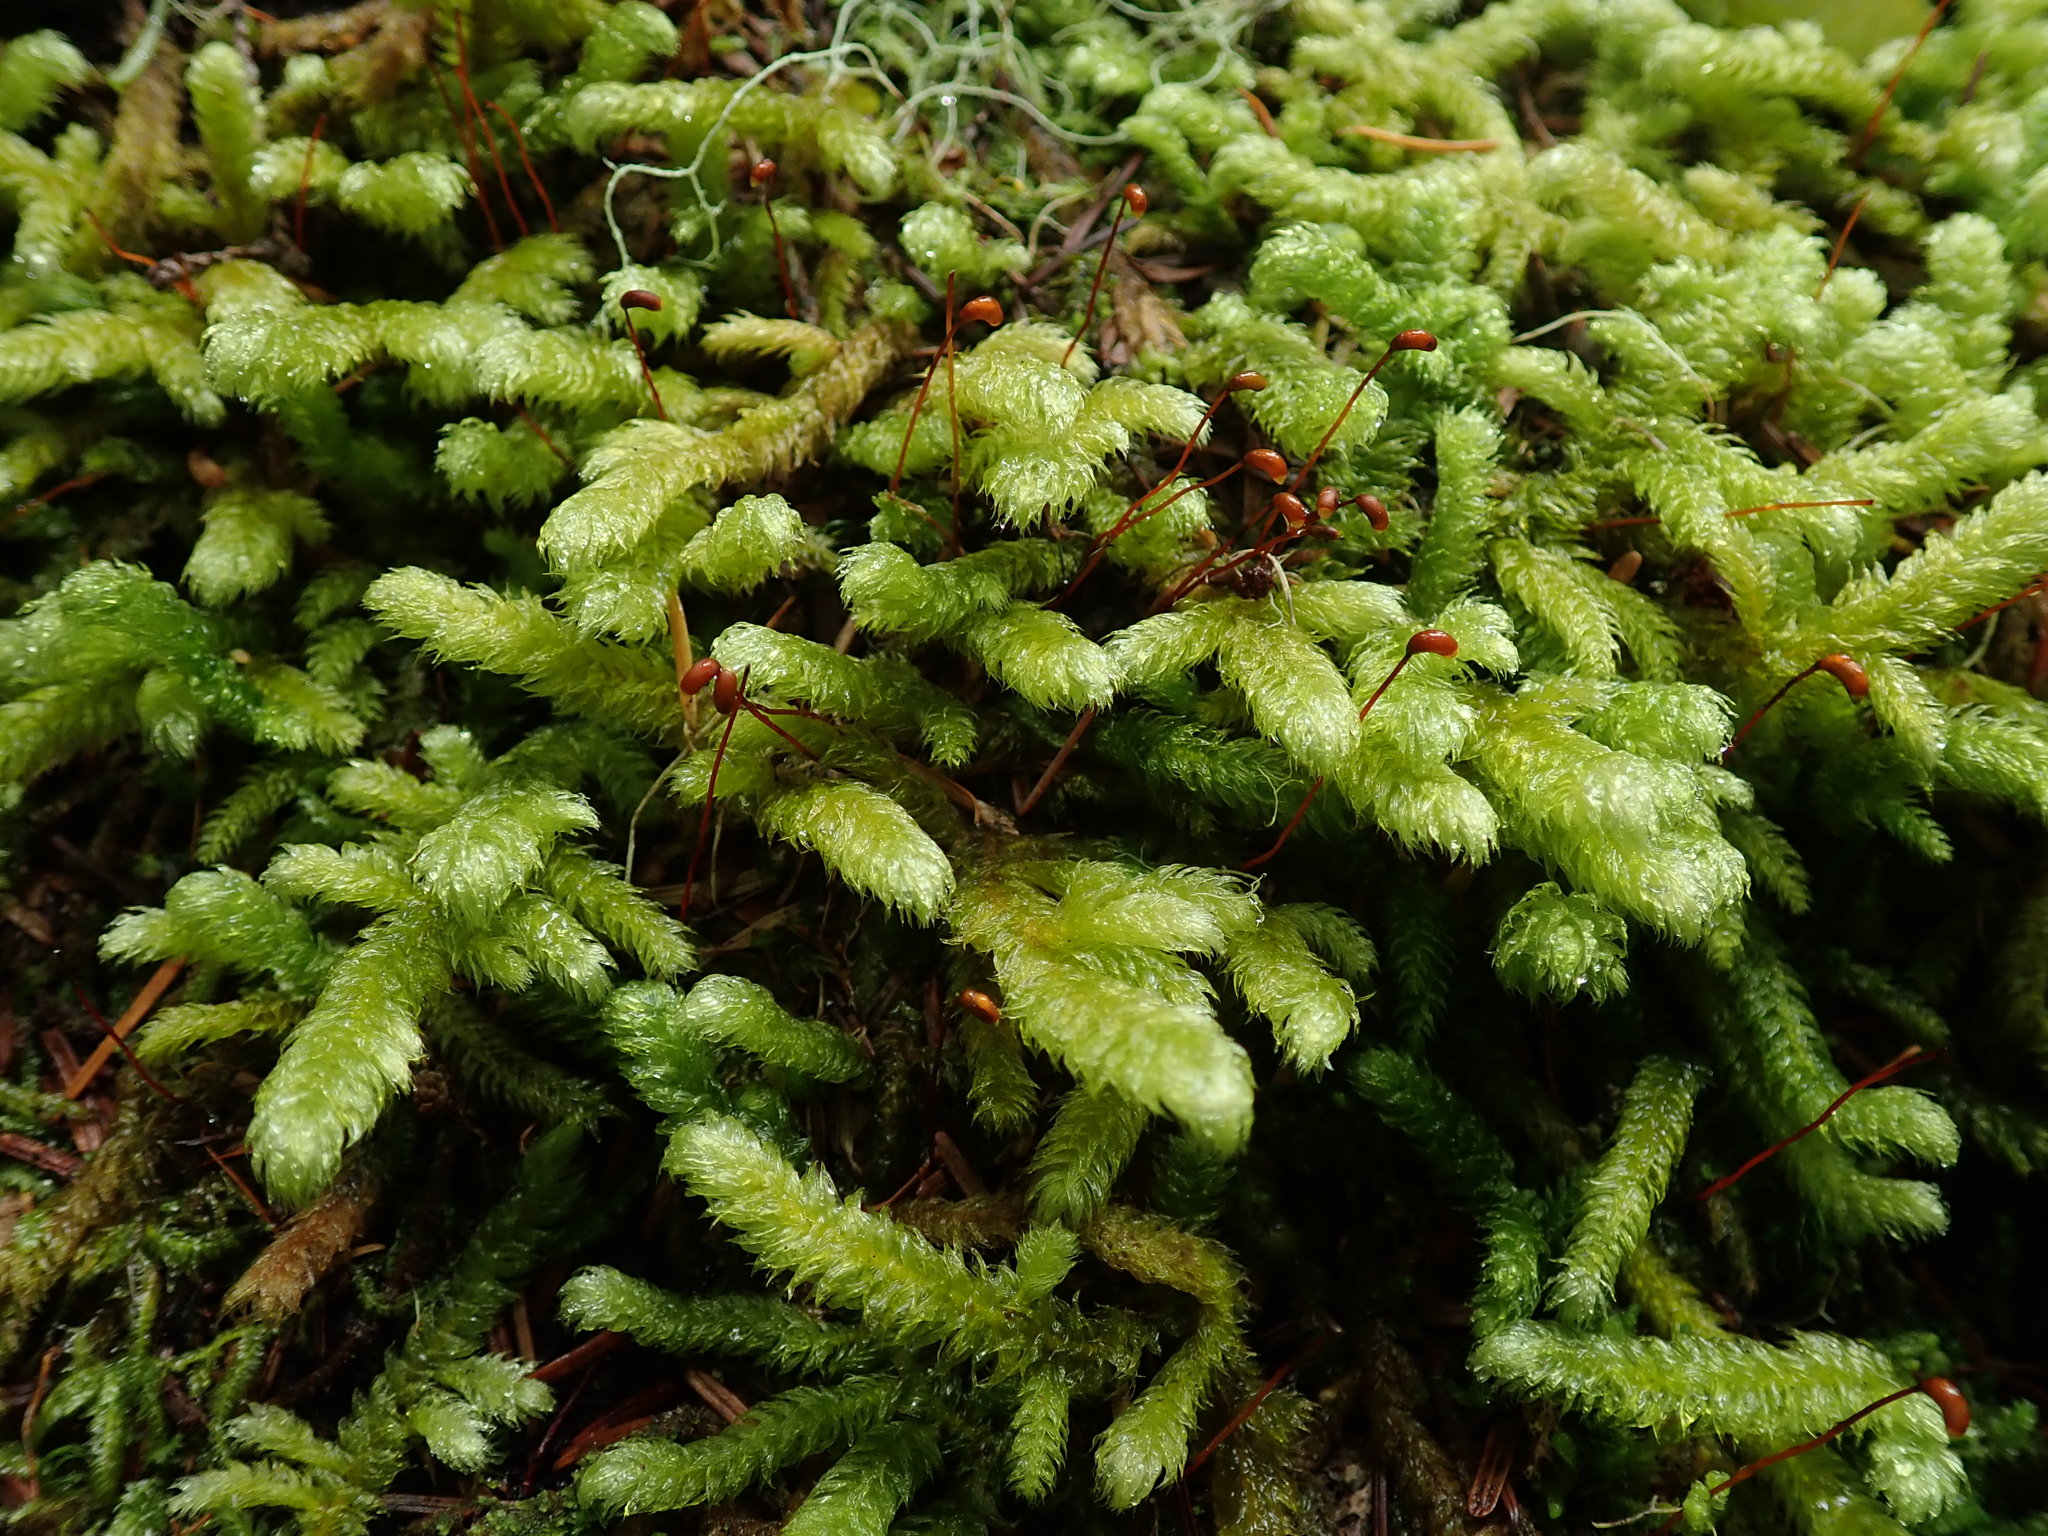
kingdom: Plantae
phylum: Bryophyta
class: Bryopsida
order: Hypnales
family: Hylocomiaceae
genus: Rhytidiopsis
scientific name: Rhytidiopsis robusta
